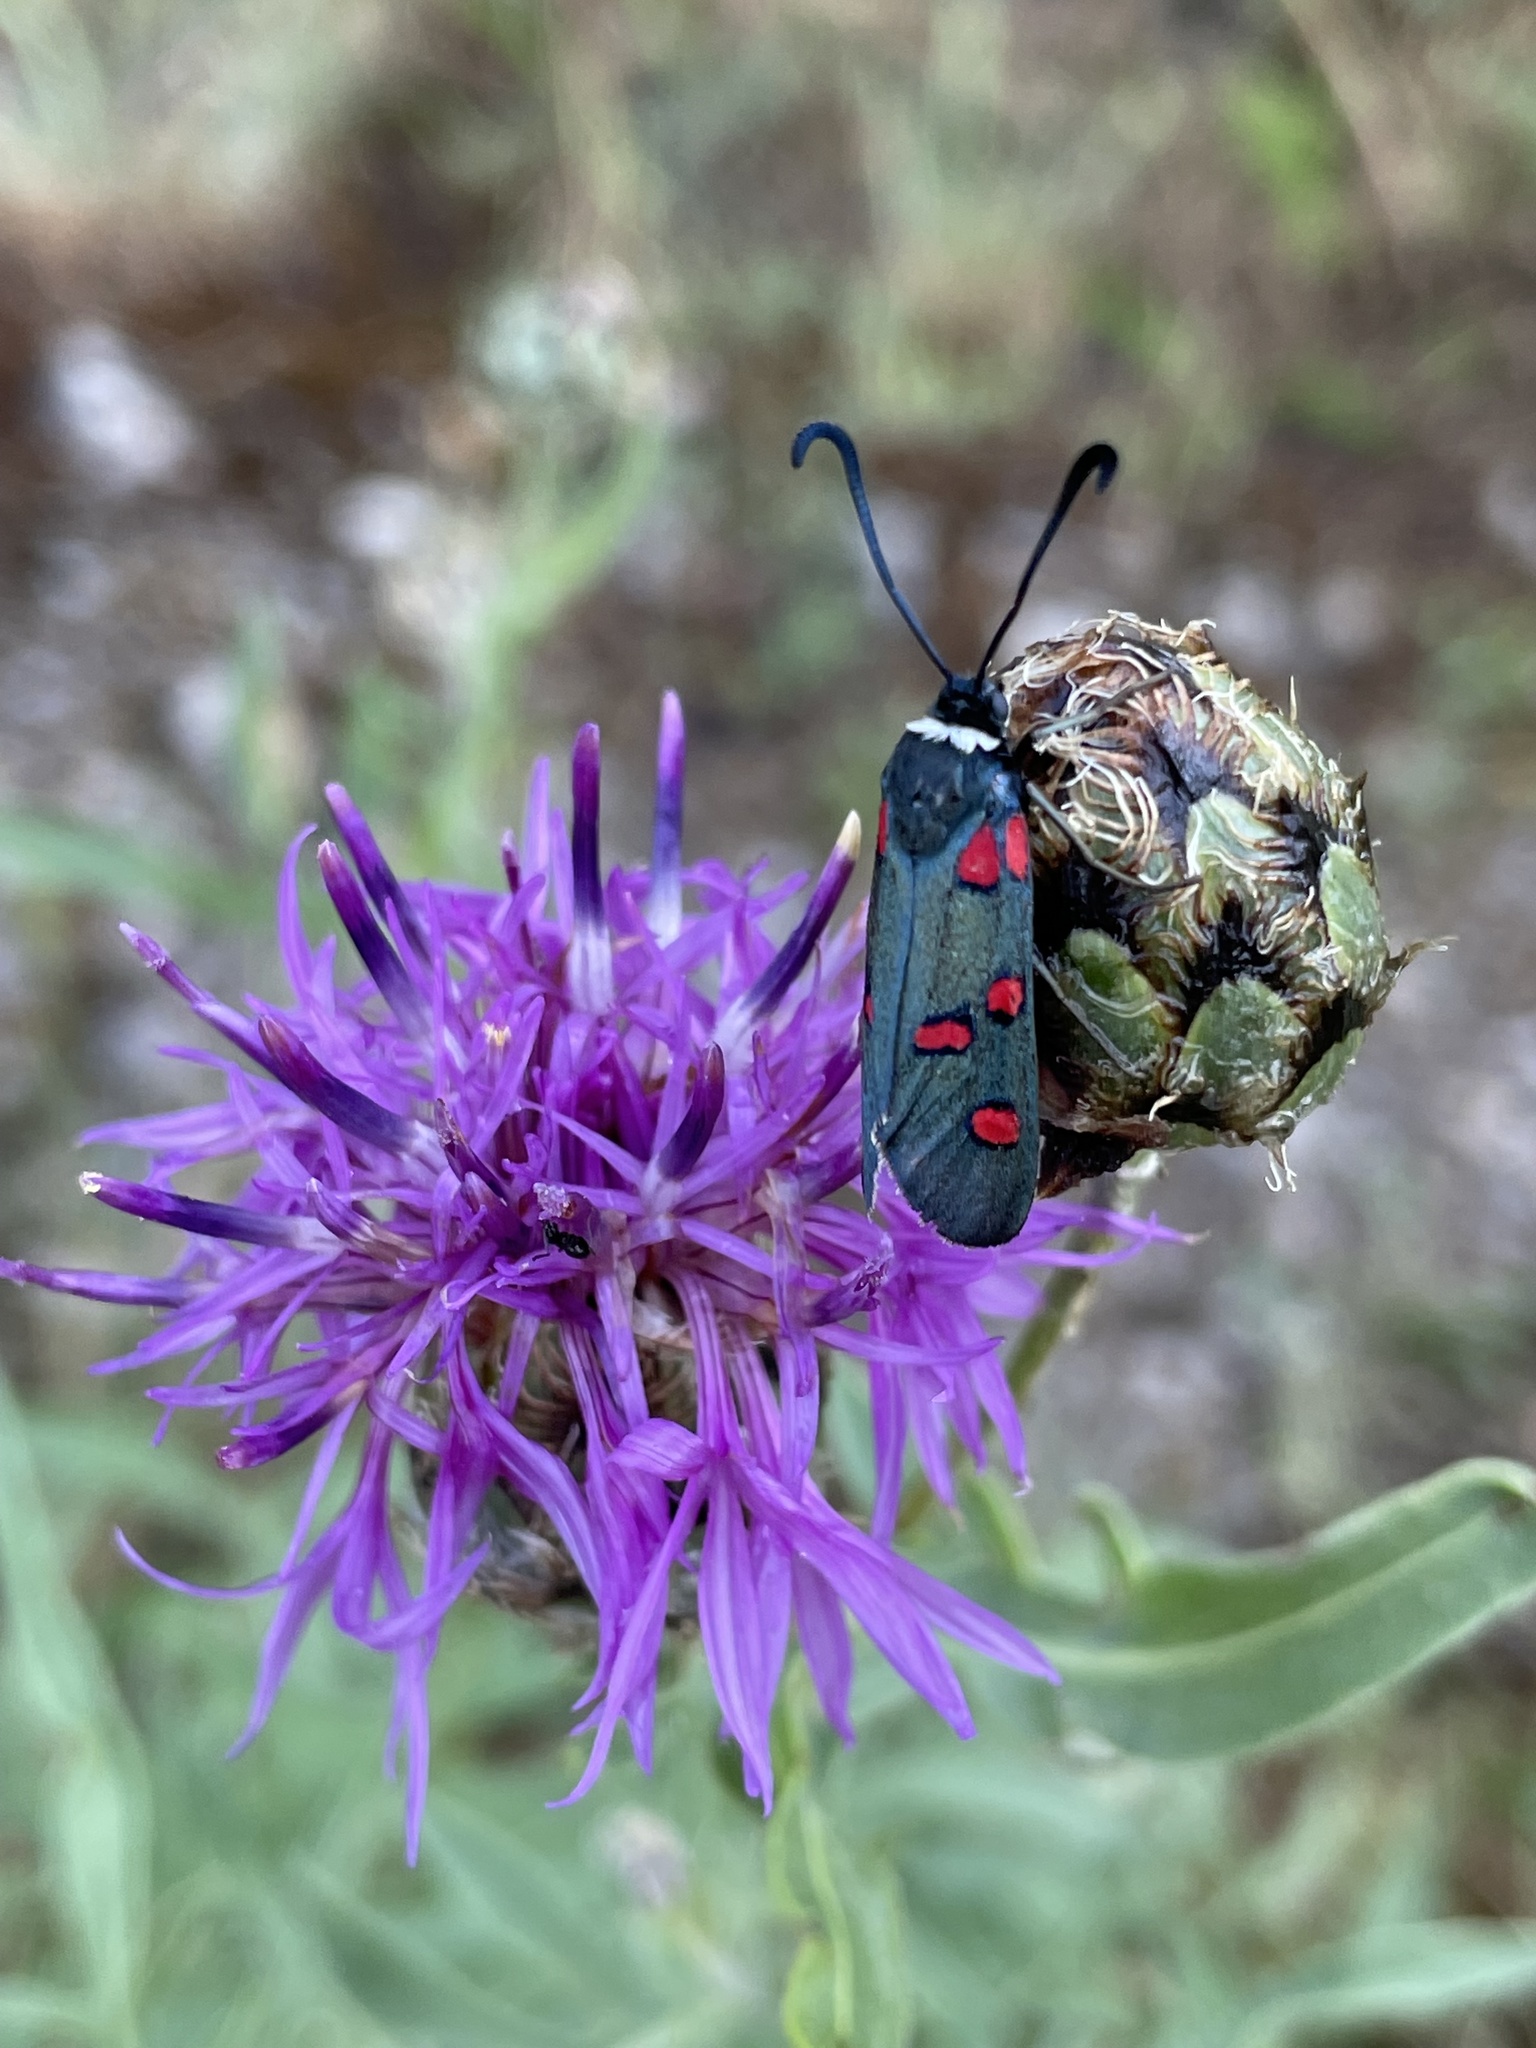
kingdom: Animalia
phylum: Arthropoda
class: Insecta
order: Lepidoptera
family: Zygaenidae
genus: Zygaena
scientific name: Zygaena lavandulae
